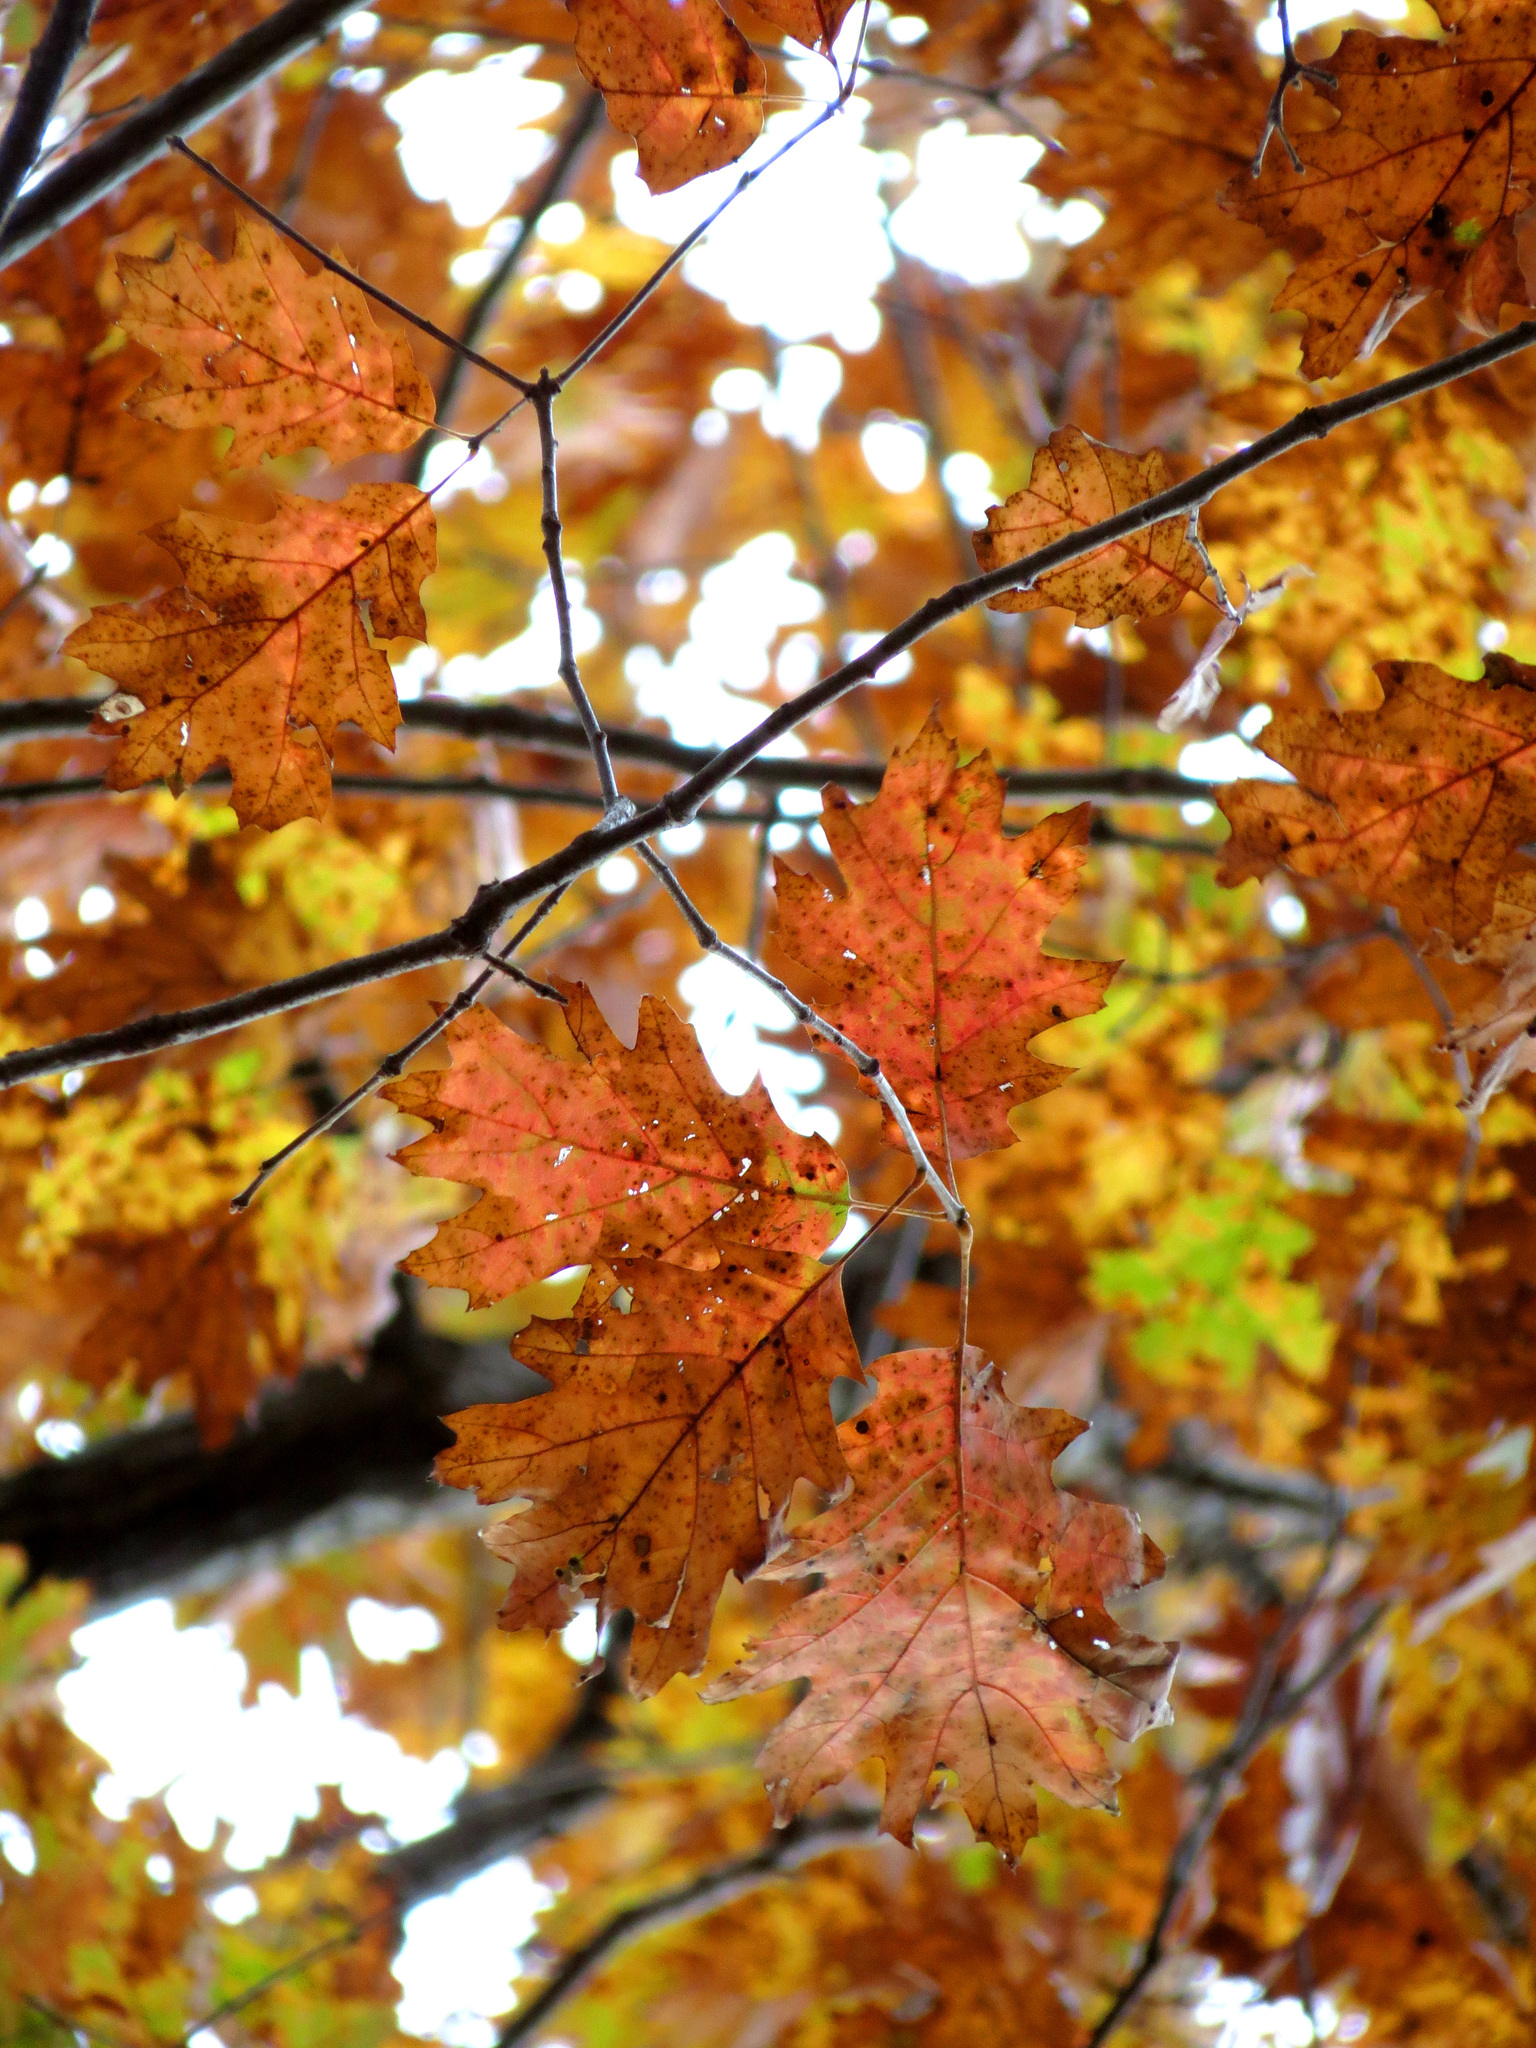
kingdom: Plantae
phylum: Tracheophyta
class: Magnoliopsida
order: Fagales
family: Fagaceae
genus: Quercus
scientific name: Quercus rubra
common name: Red oak
